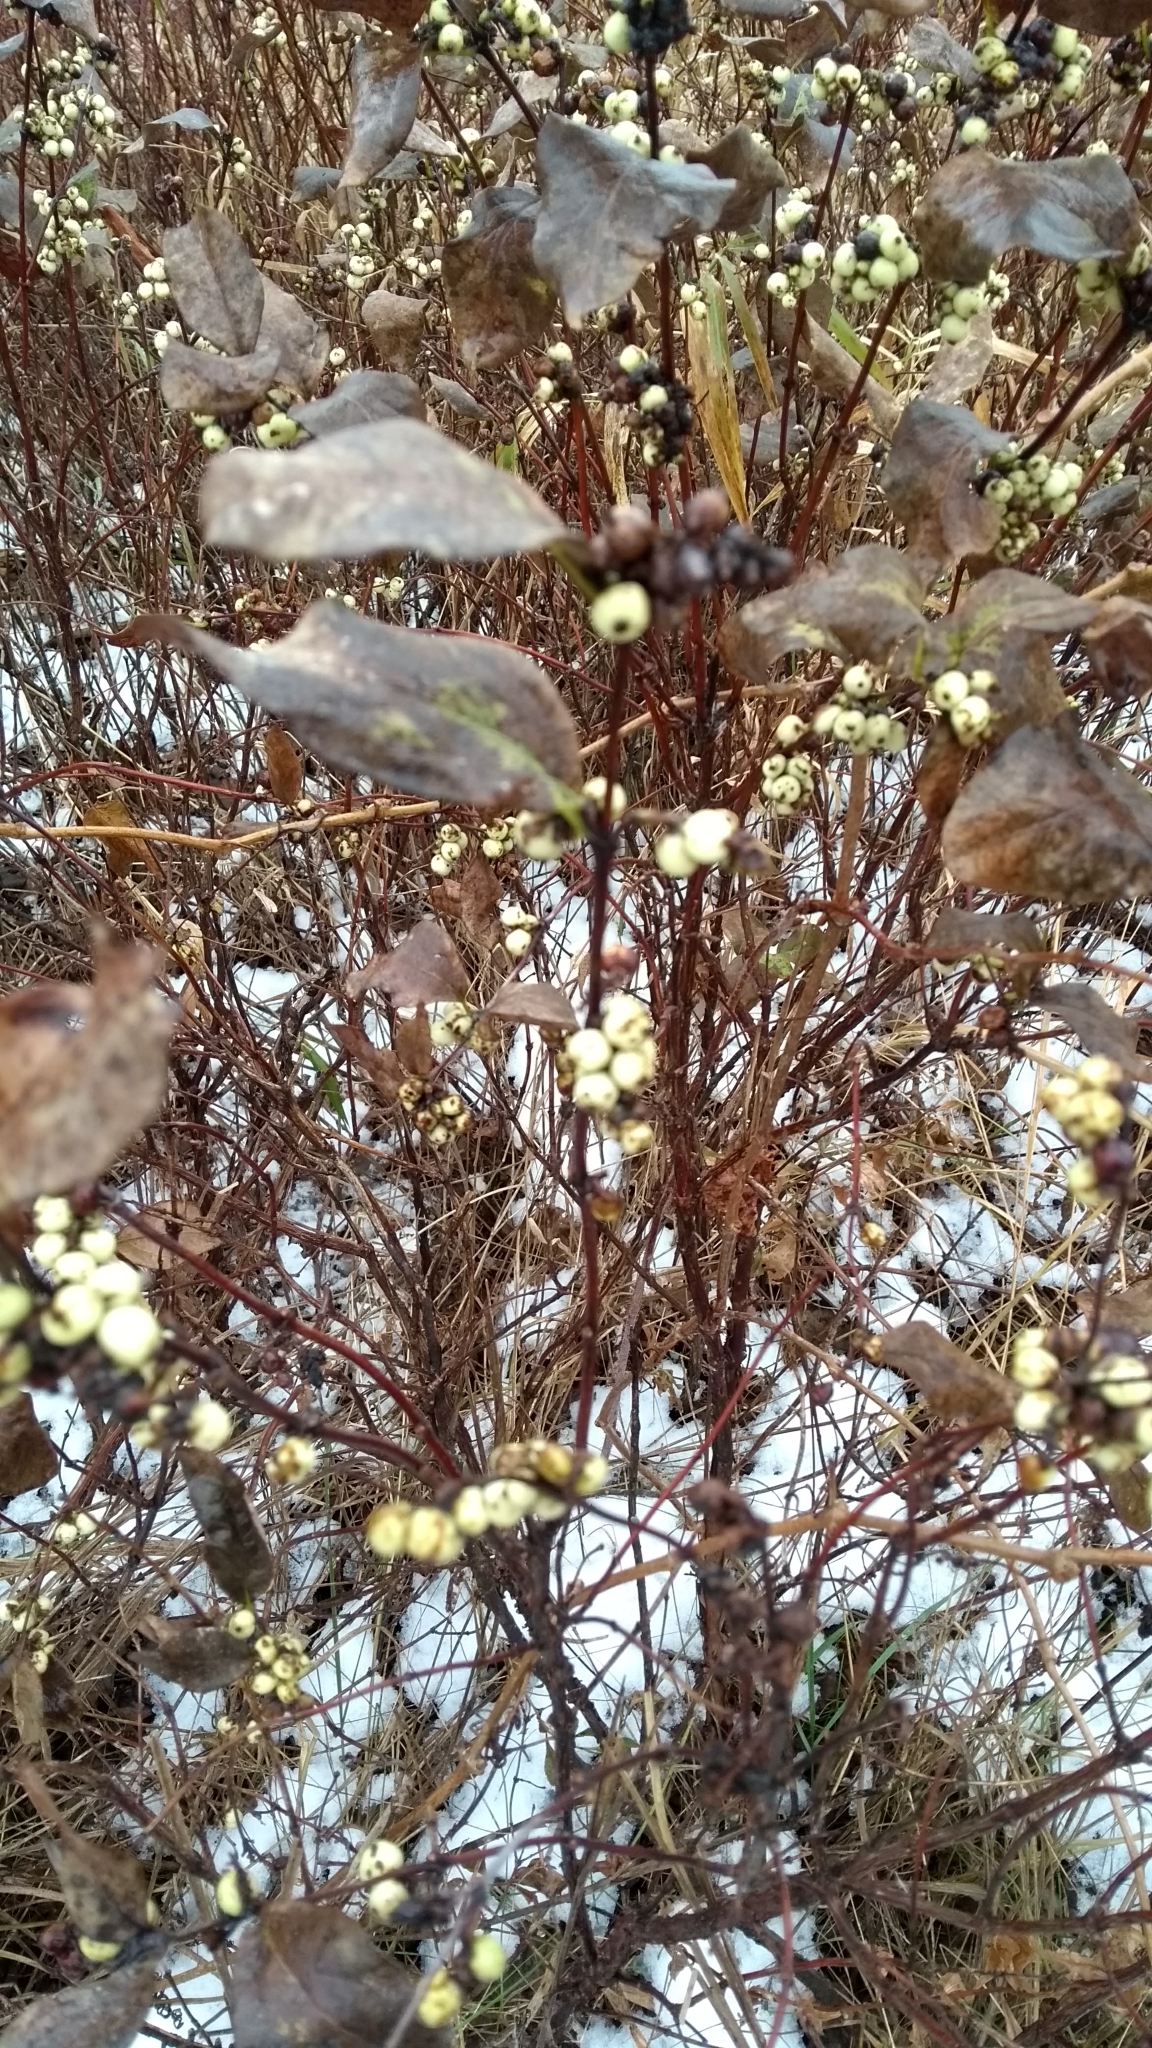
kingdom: Plantae
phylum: Tracheophyta
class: Magnoliopsida
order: Dipsacales
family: Caprifoliaceae
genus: Symphoricarpos
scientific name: Symphoricarpos
